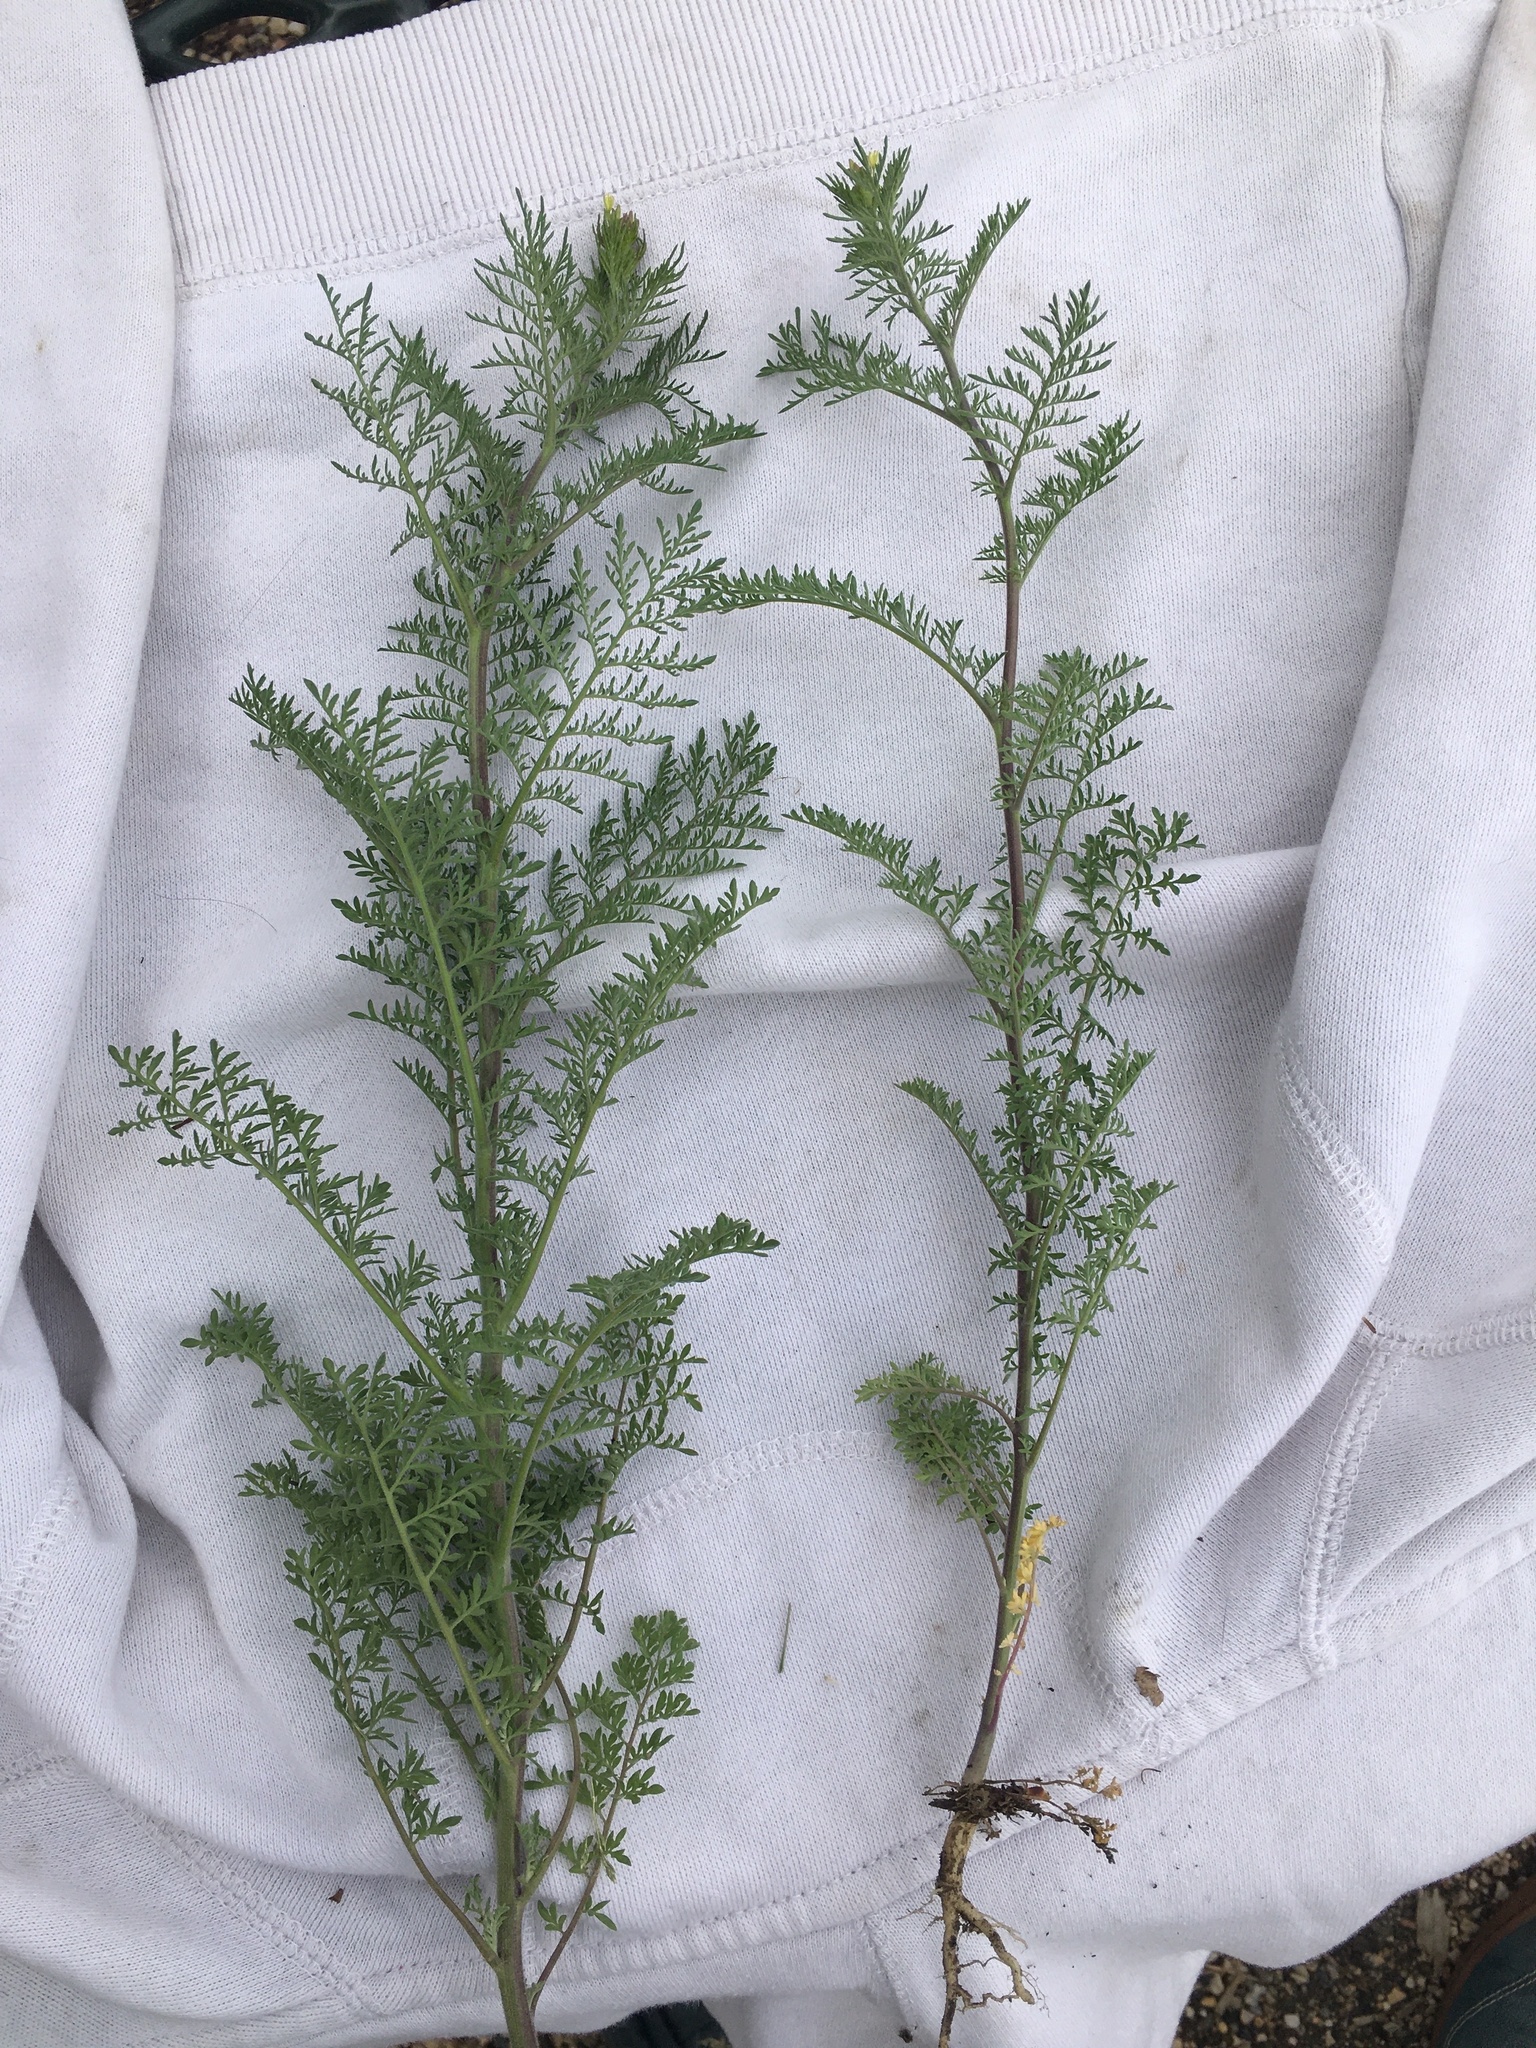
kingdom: Plantae
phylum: Tracheophyta
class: Magnoliopsida
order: Brassicales
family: Brassicaceae
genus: Descurainia
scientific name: Descurainia sophia
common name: Flixweed
